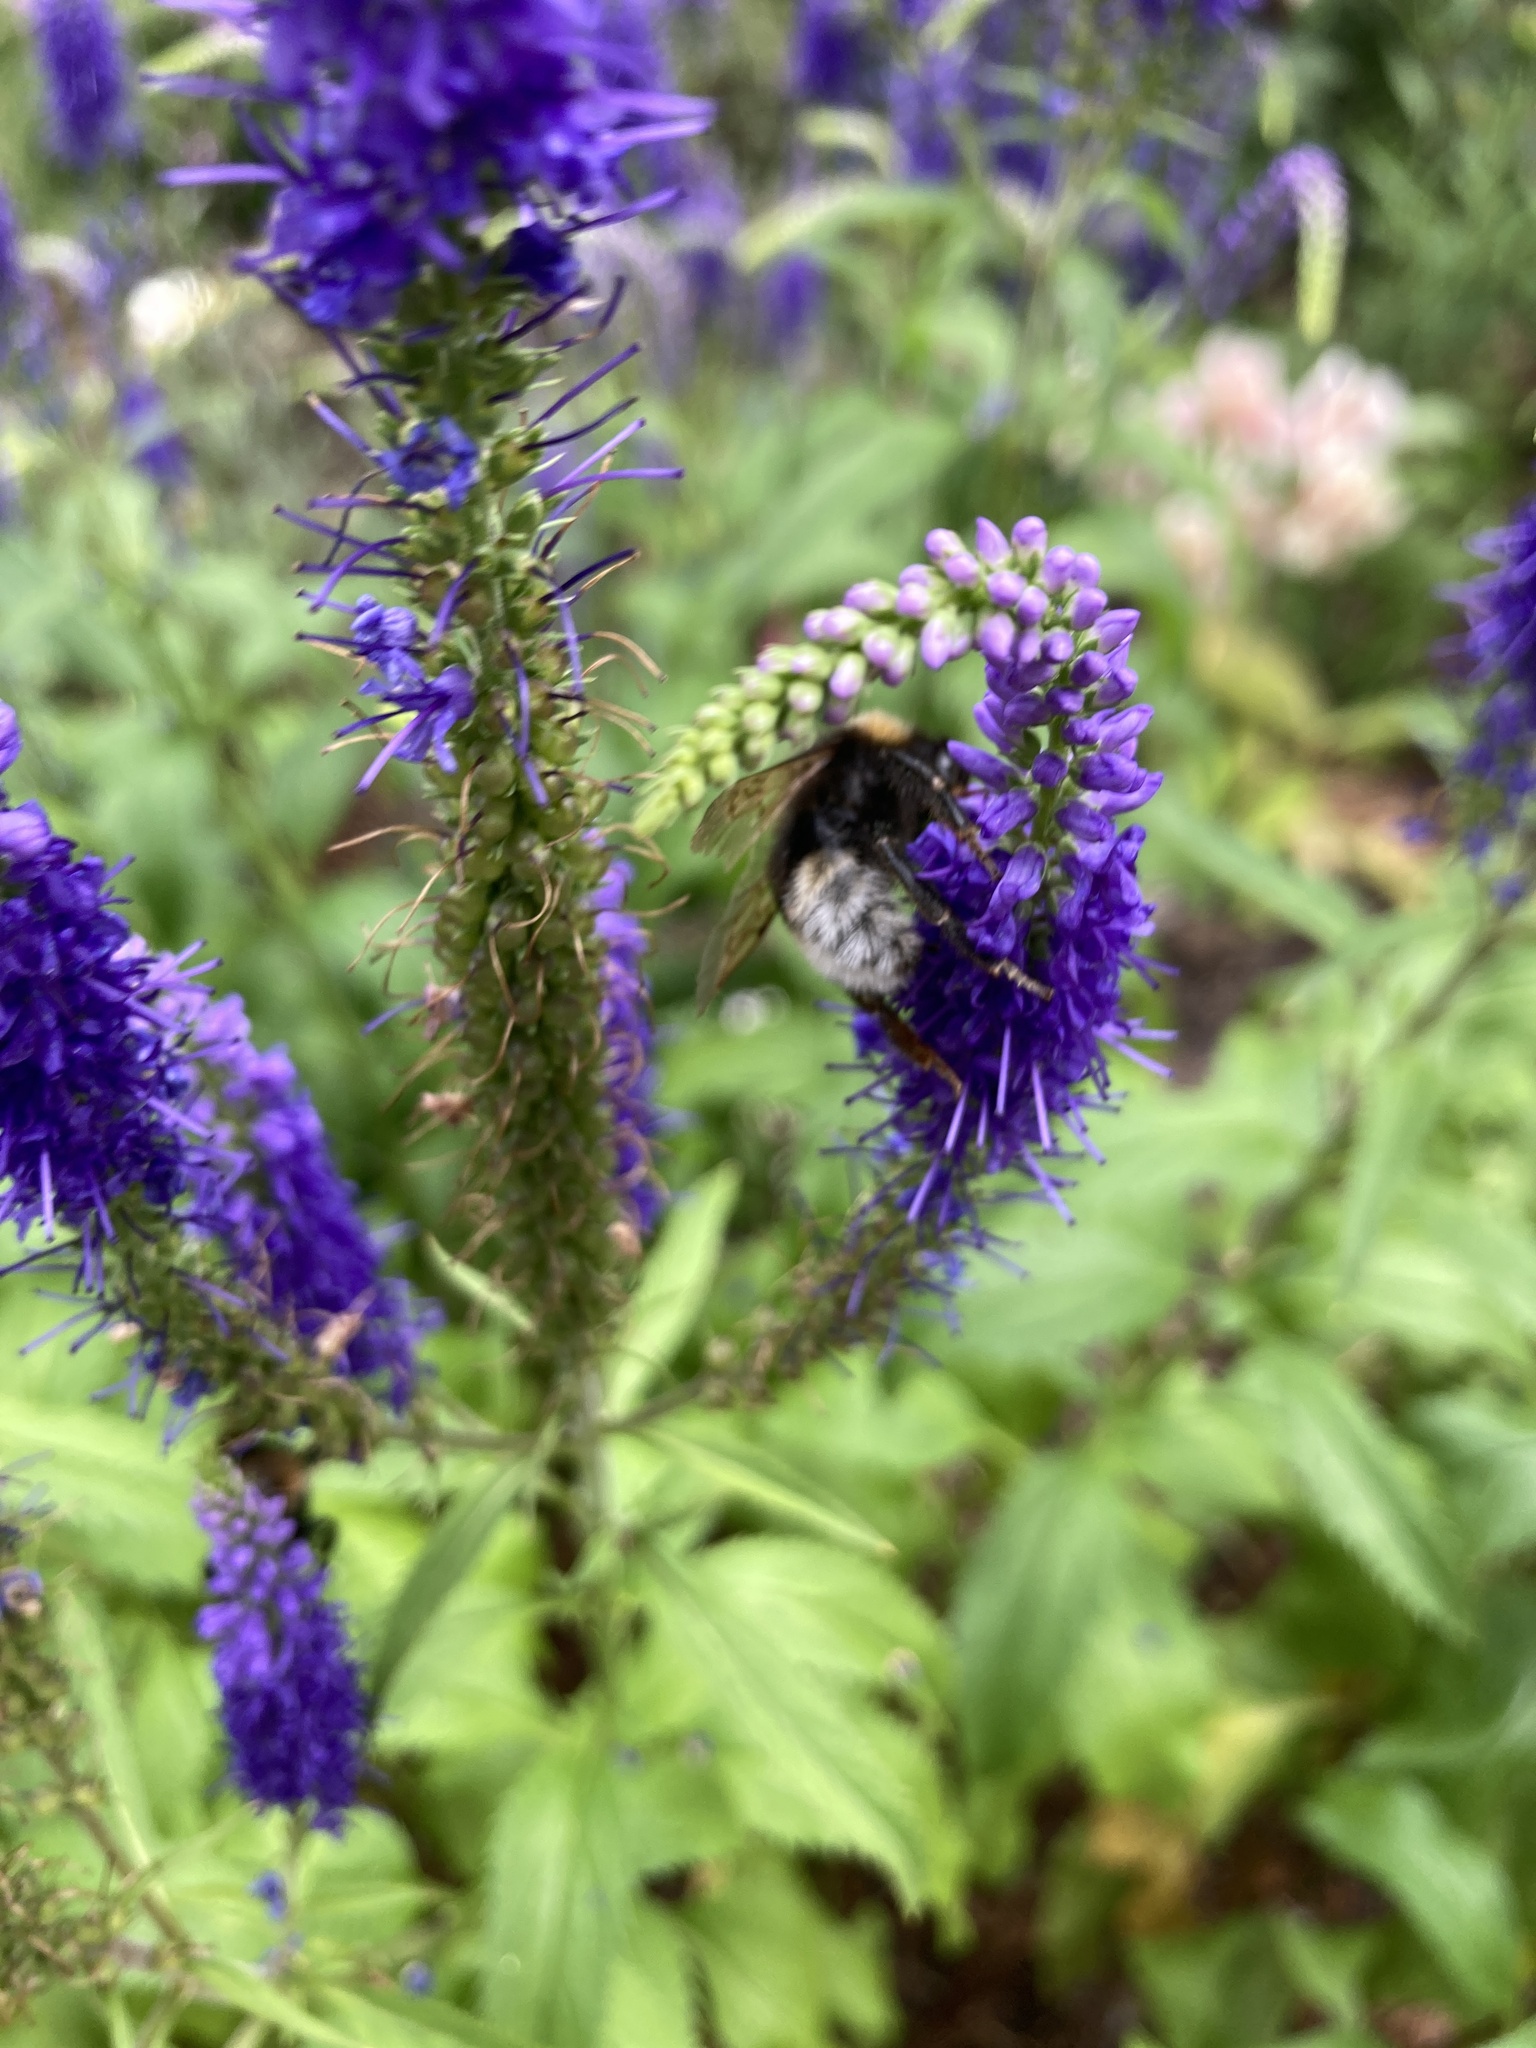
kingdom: Animalia
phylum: Arthropoda
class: Insecta
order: Hymenoptera
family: Apidae
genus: Bombus
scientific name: Bombus vestalis
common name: Vestal cuckoo bee
